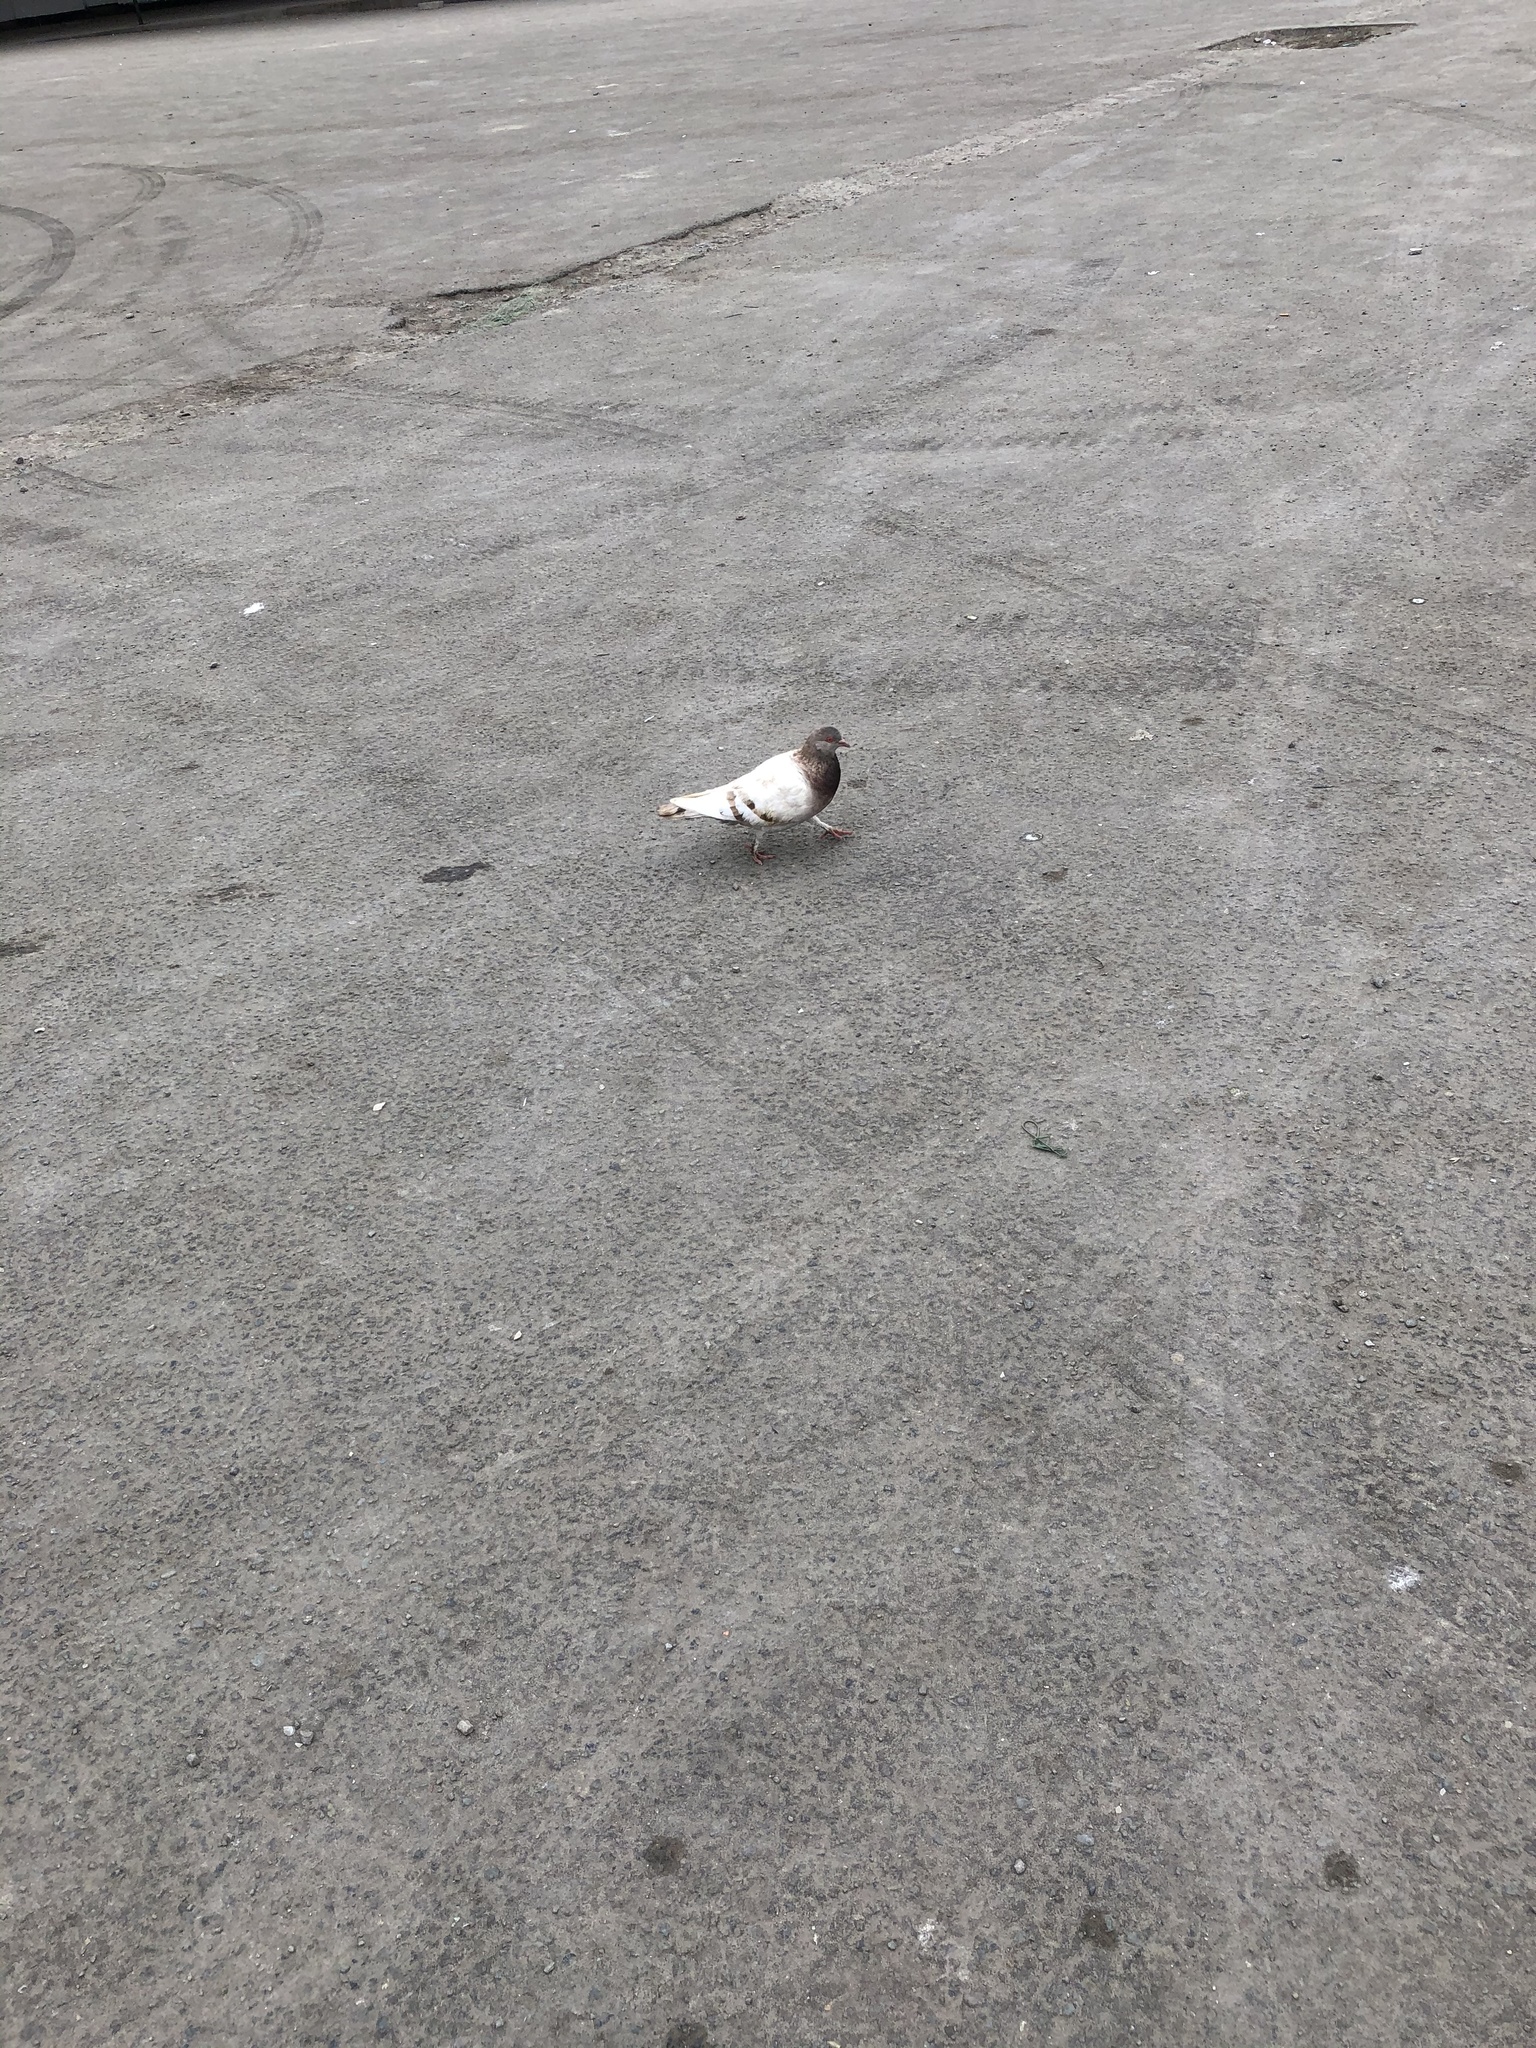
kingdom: Animalia
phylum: Chordata
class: Aves
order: Columbiformes
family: Columbidae
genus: Columba
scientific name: Columba livia
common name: Rock pigeon
